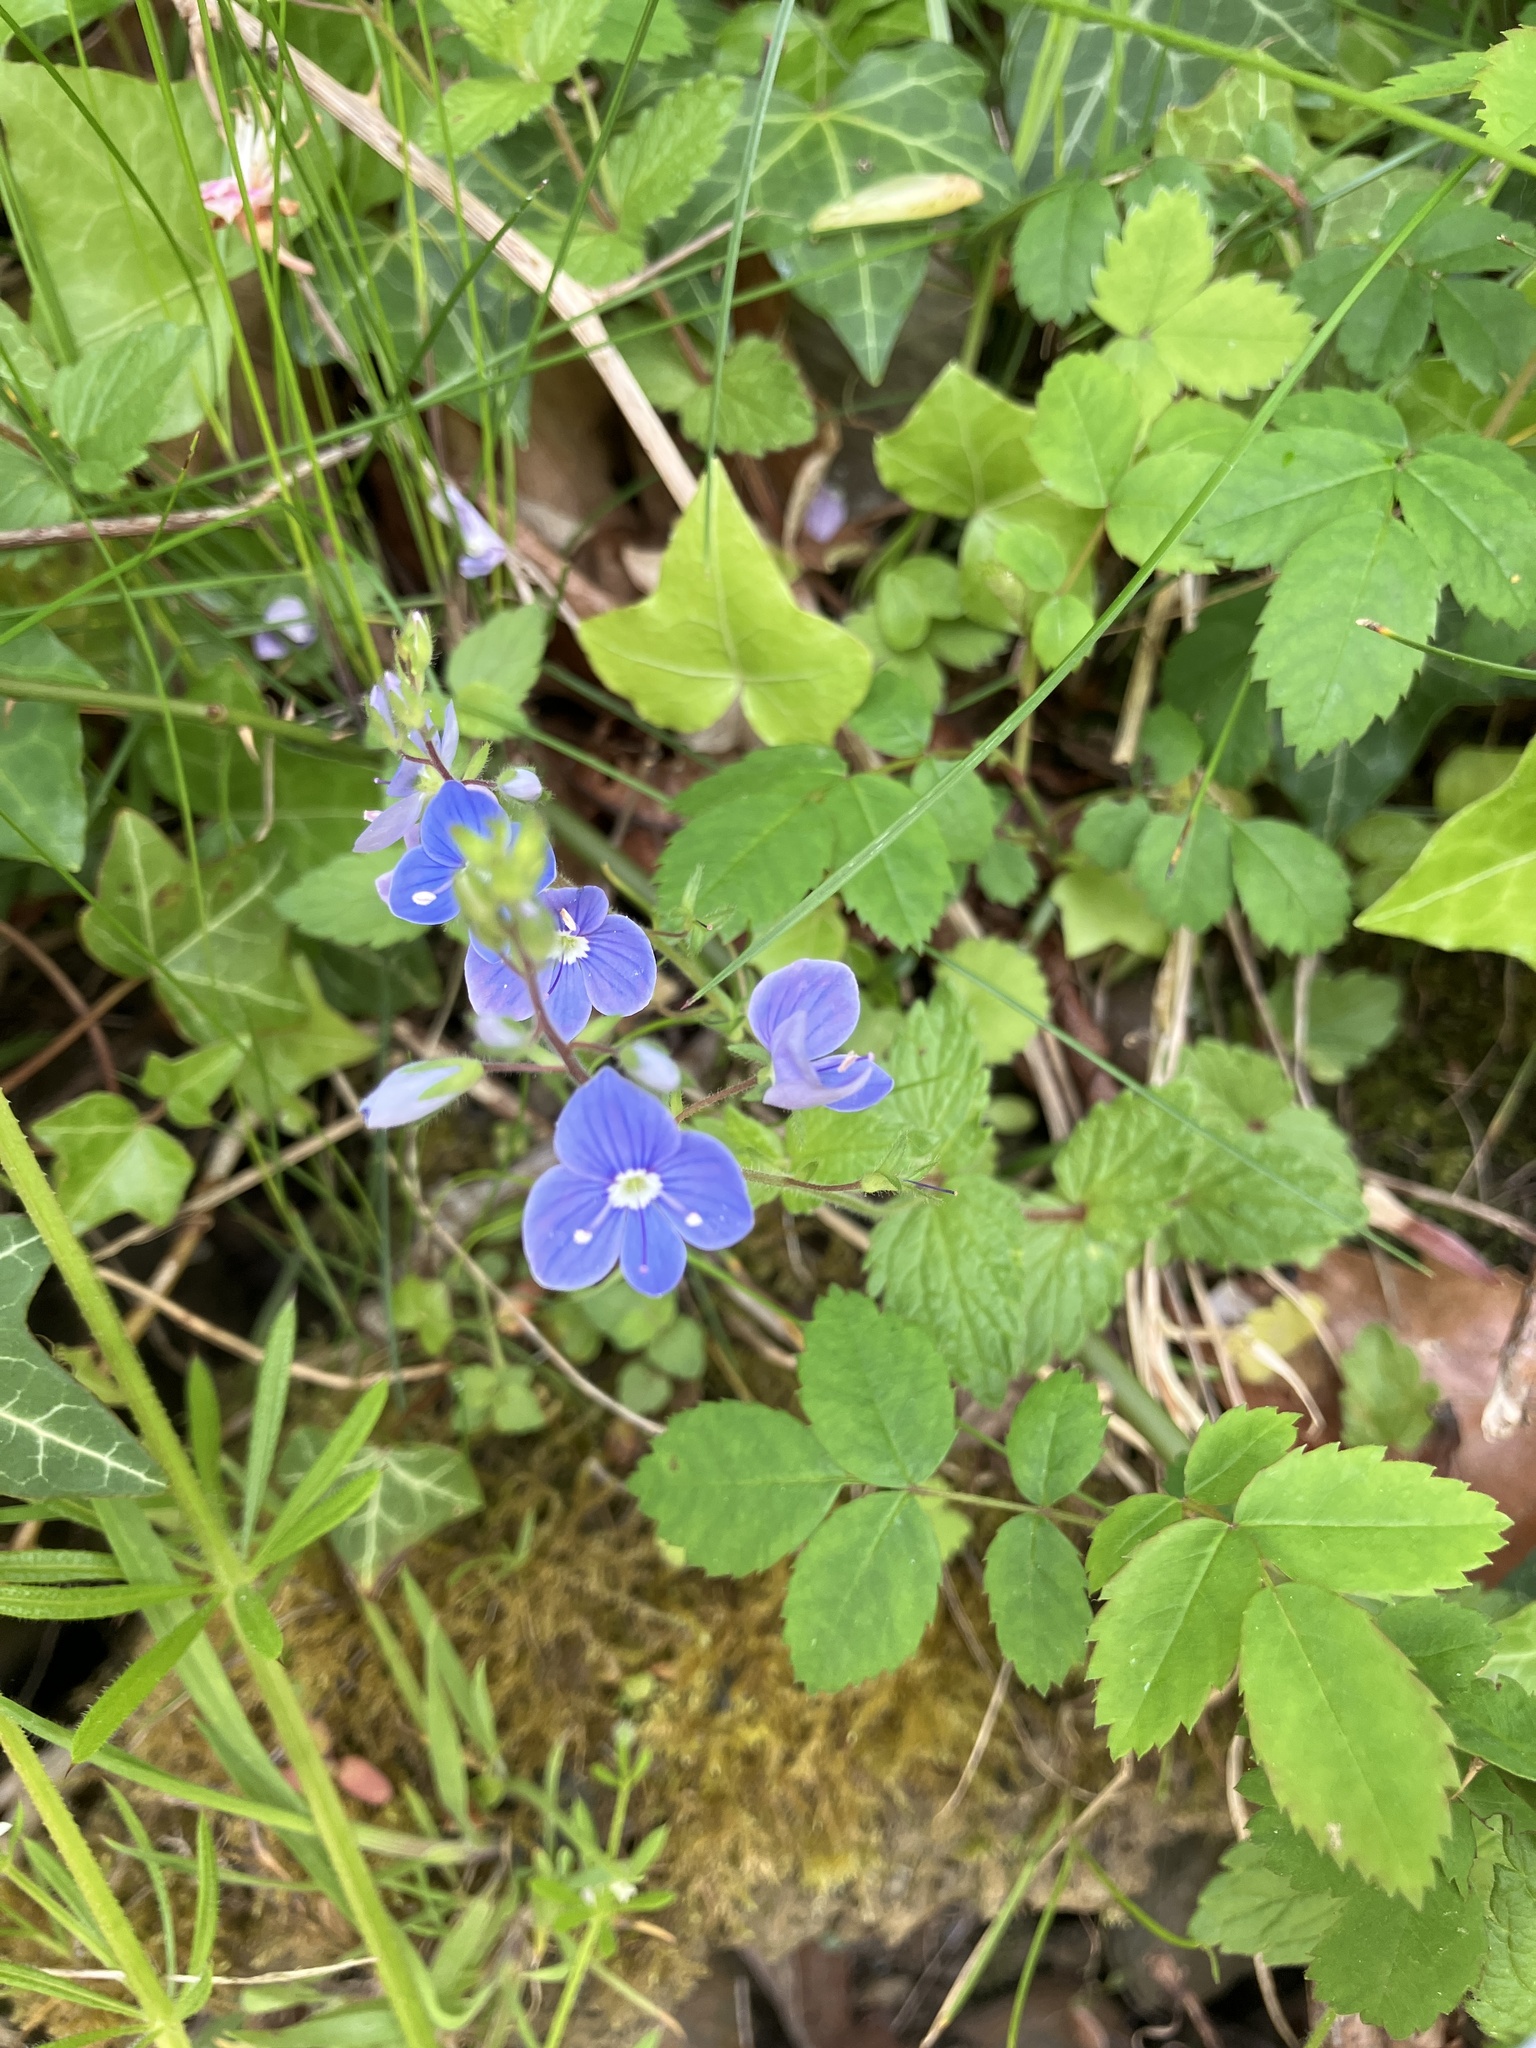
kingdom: Plantae
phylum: Tracheophyta
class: Magnoliopsida
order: Lamiales
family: Plantaginaceae
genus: Veronica
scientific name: Veronica chamaedrys
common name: Germander speedwell
